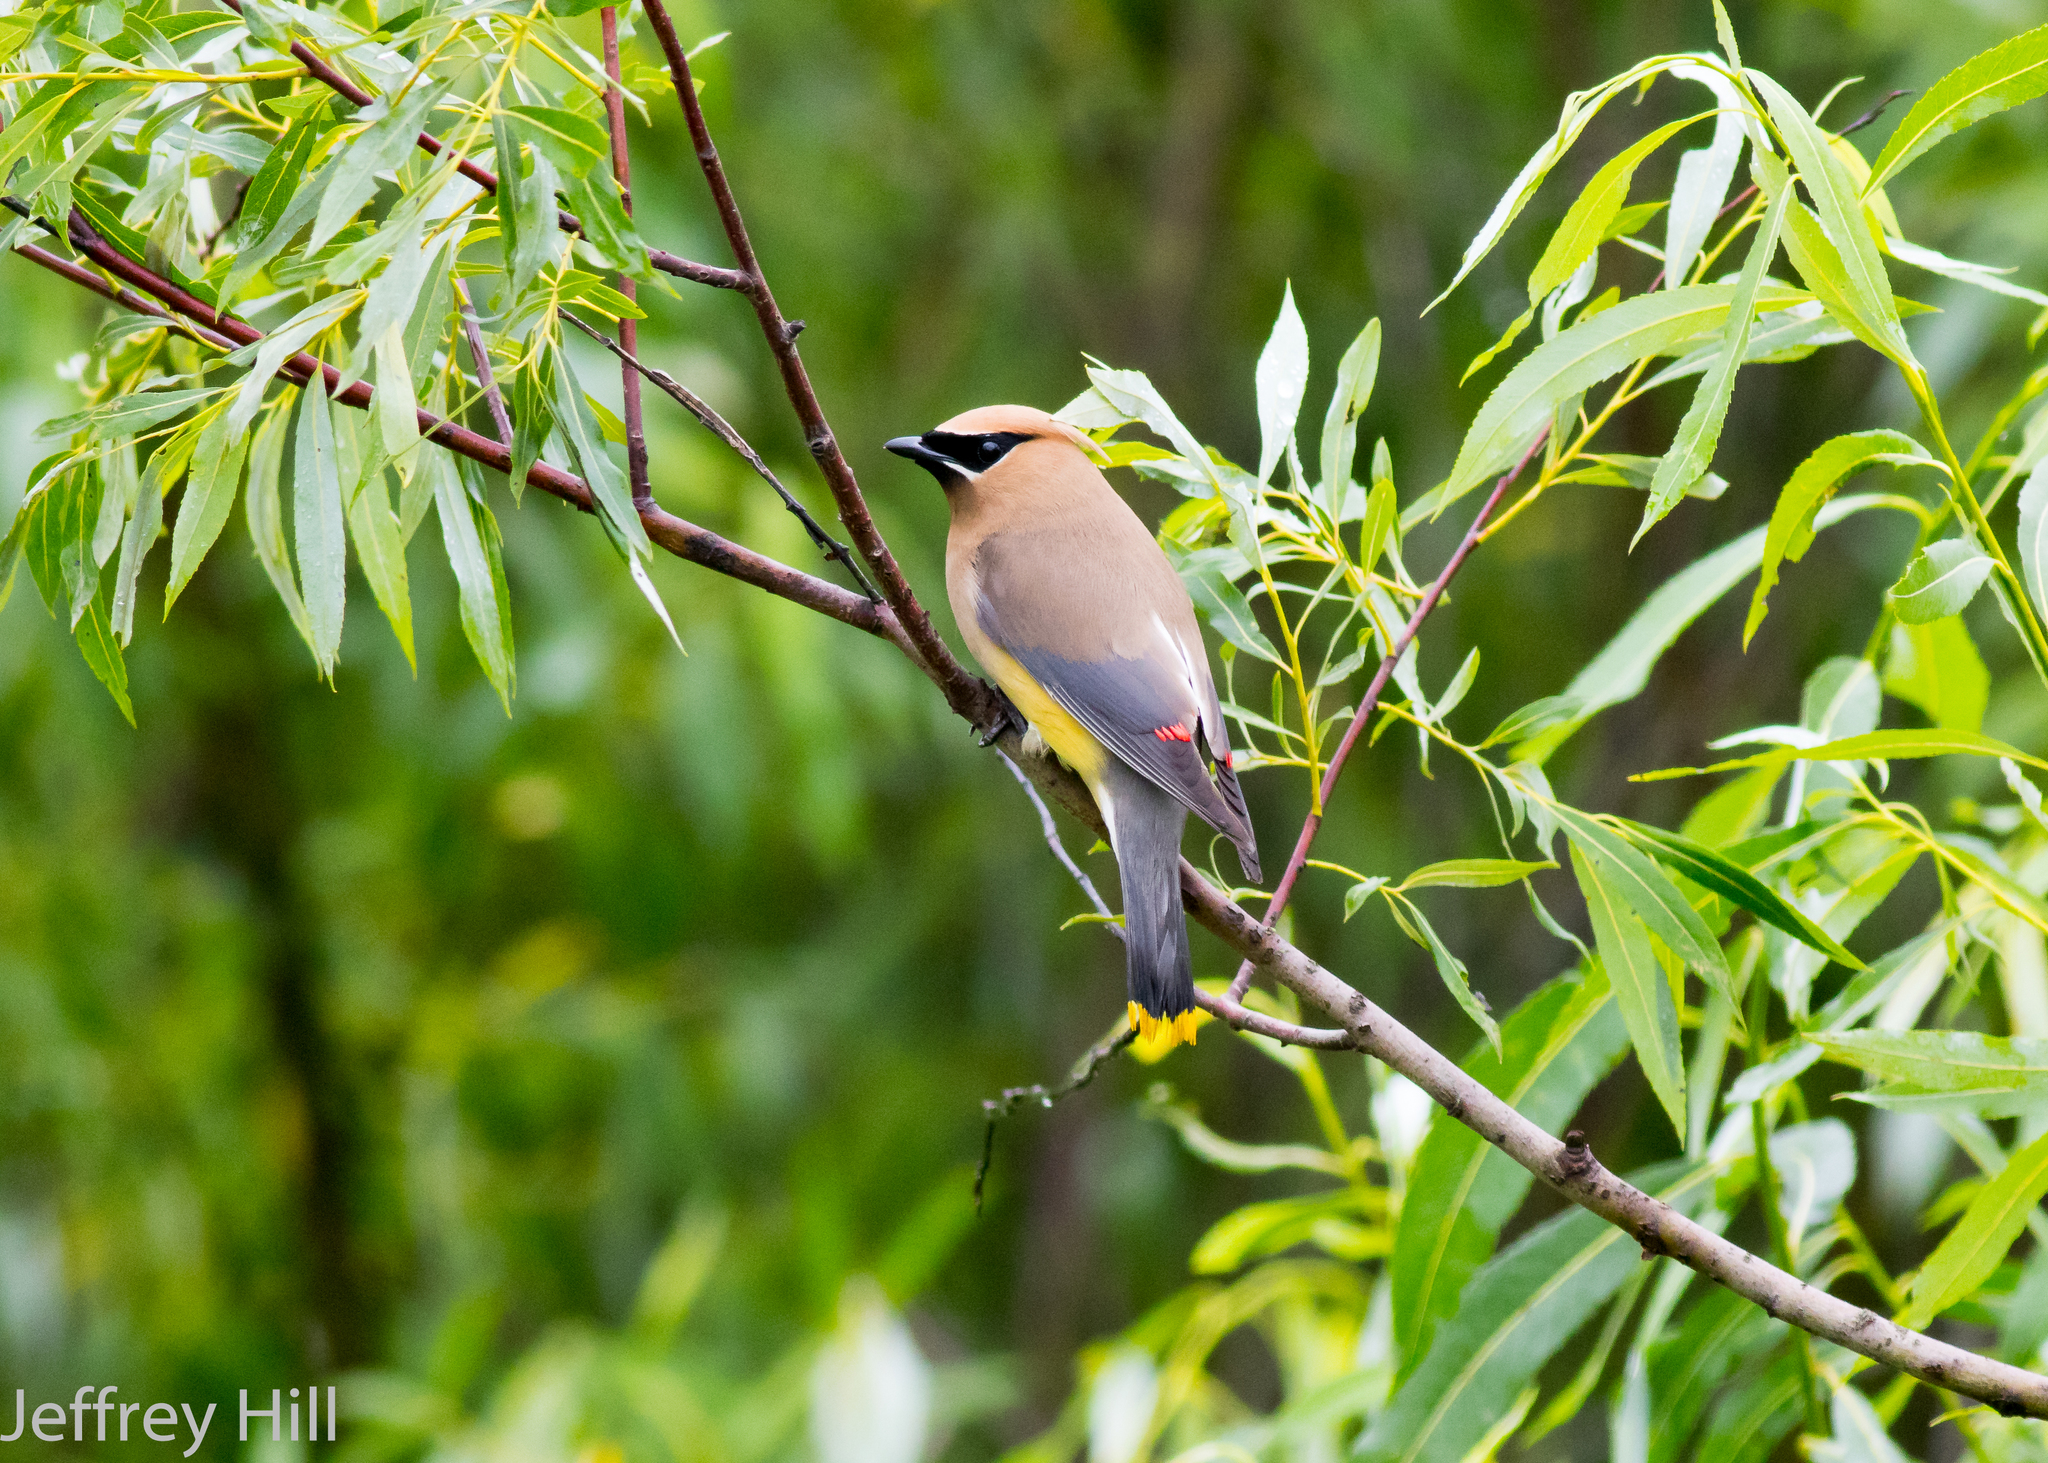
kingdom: Animalia
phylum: Chordata
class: Aves
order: Passeriformes
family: Bombycillidae
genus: Bombycilla
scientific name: Bombycilla cedrorum
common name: Cedar waxwing
